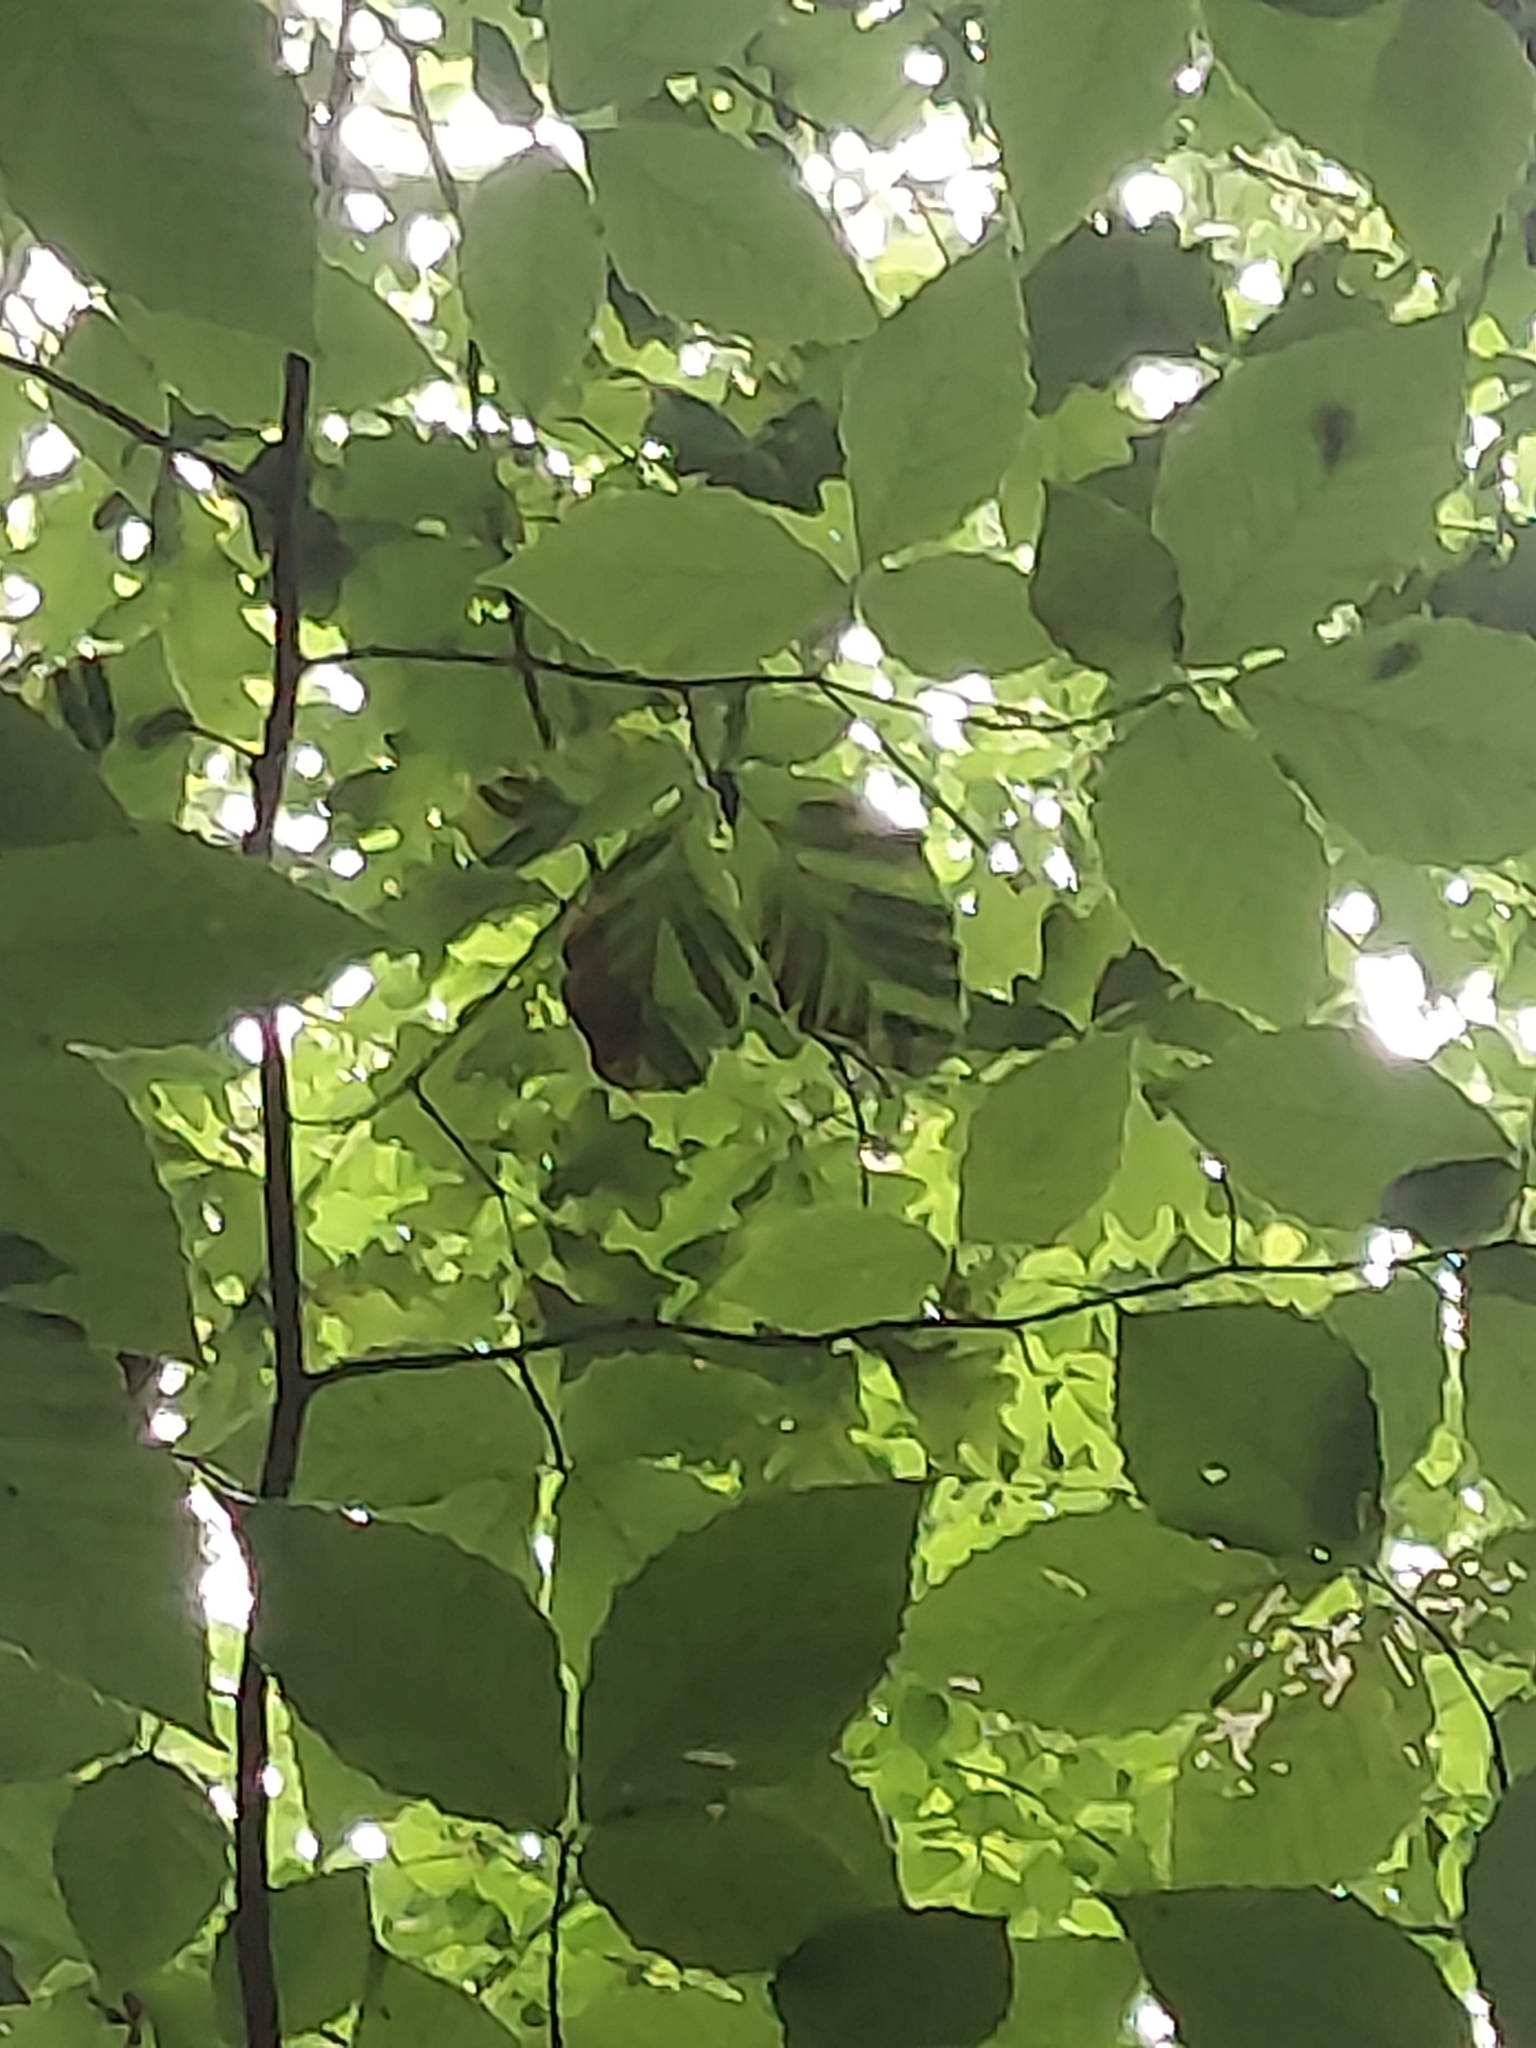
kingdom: Animalia
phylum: Nematoda
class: Chromadorea
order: Rhabditida
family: Anguinidae
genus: Litylenchus
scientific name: Litylenchus crenatae
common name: Beech leaf disease
